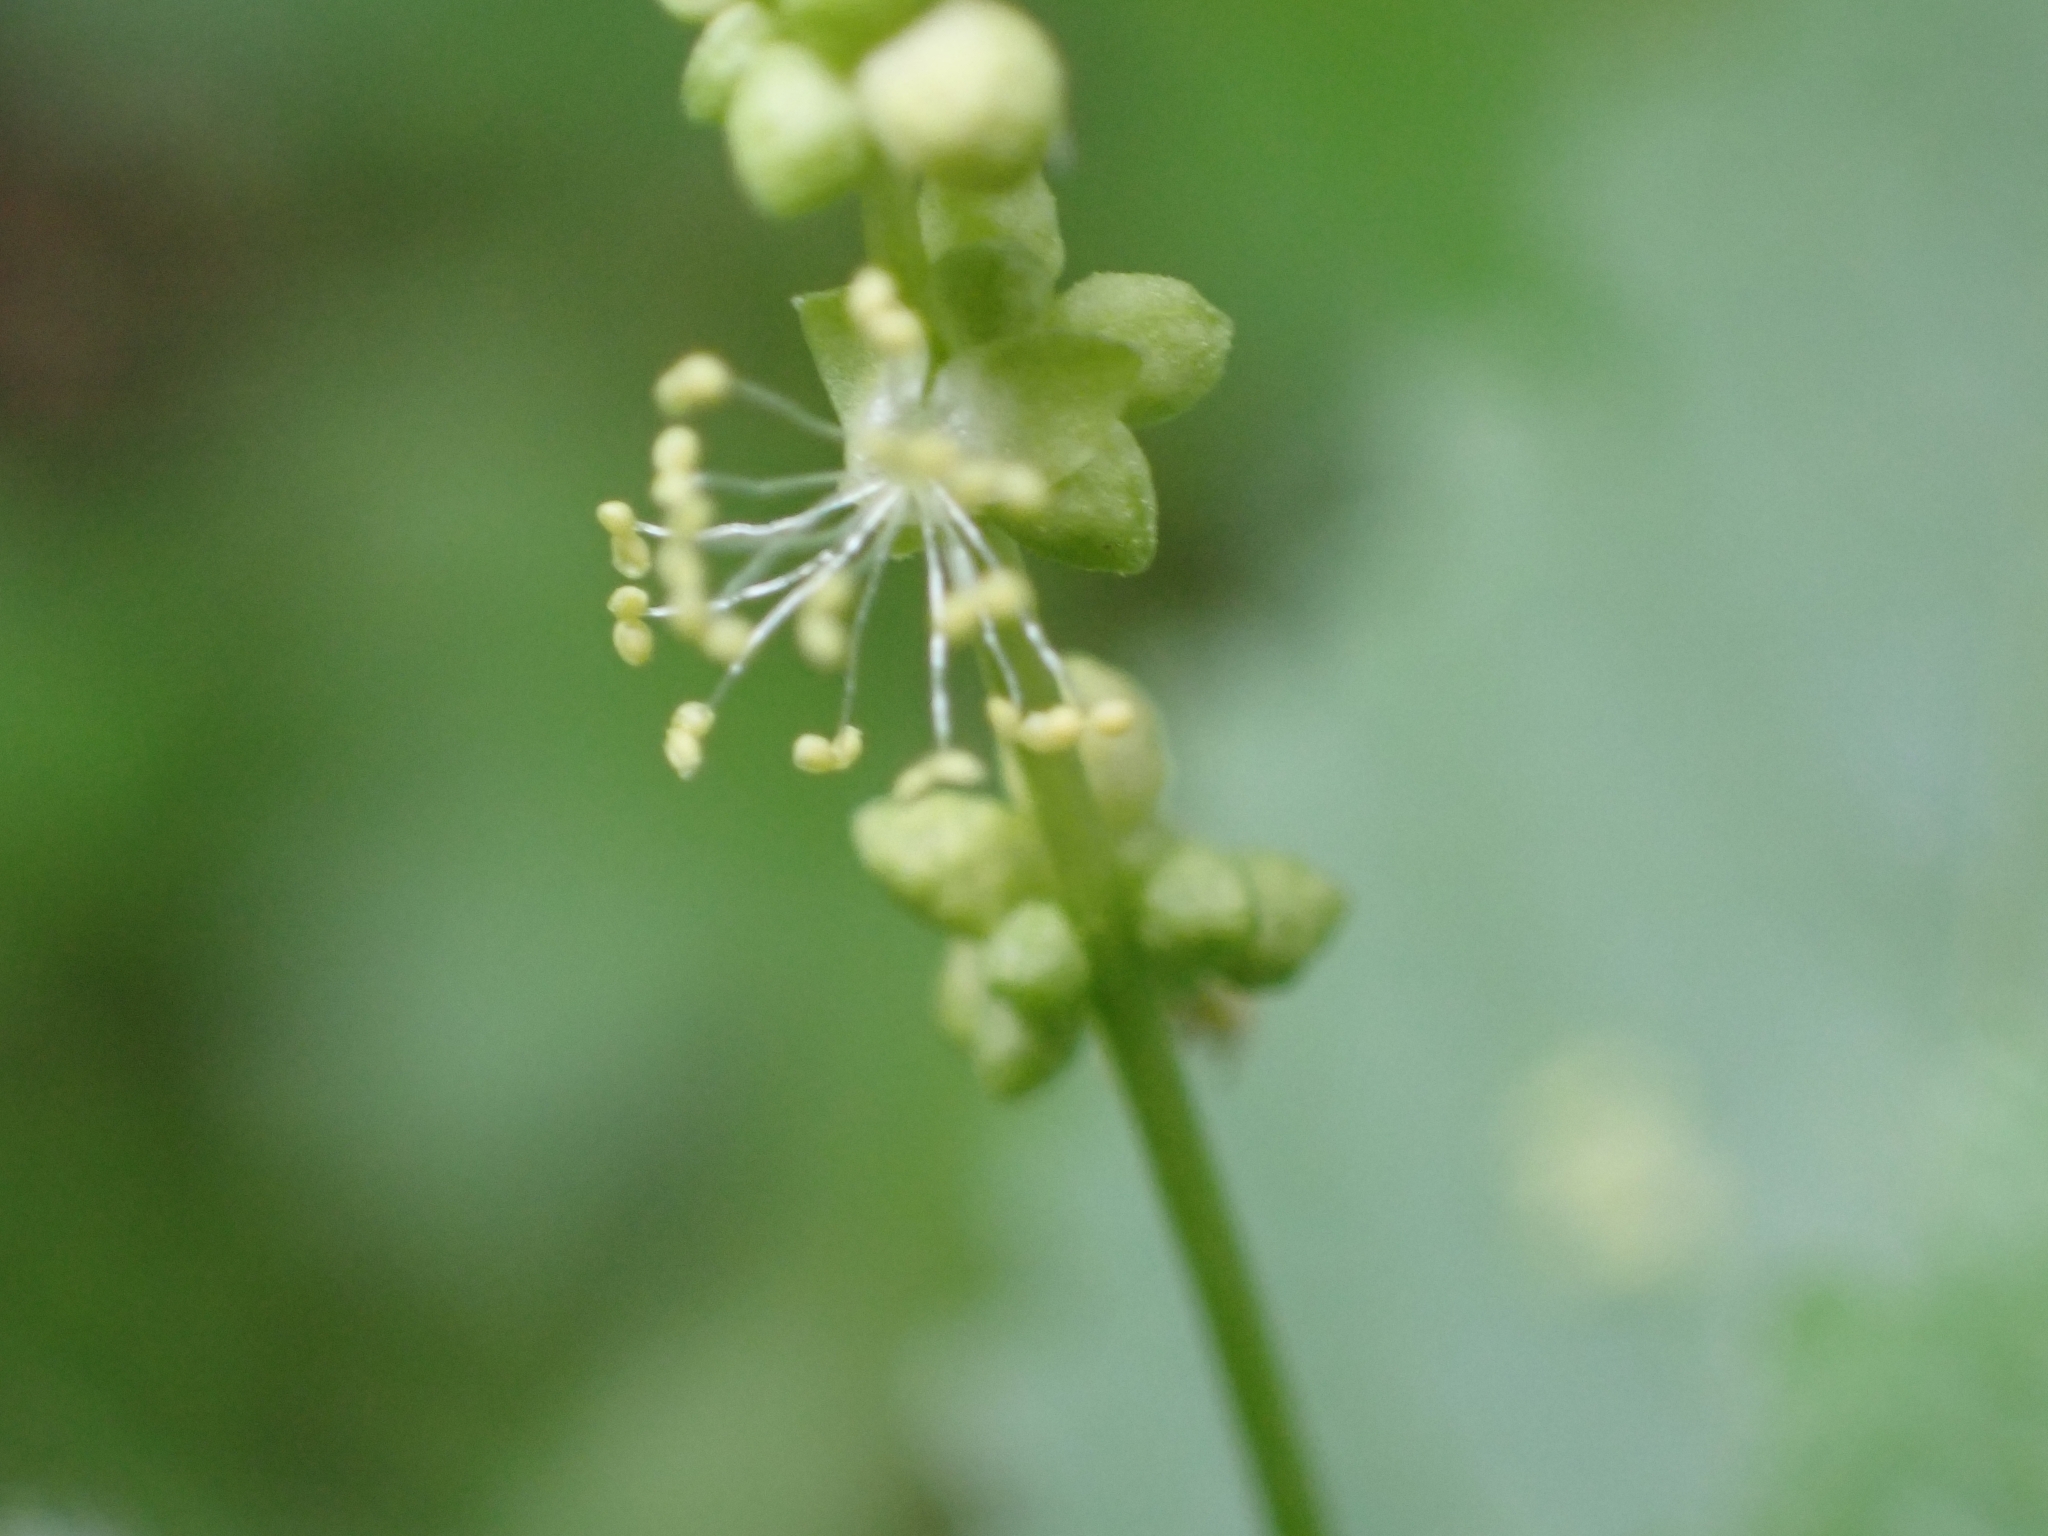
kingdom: Plantae
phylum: Tracheophyta
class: Magnoliopsida
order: Malpighiales
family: Euphorbiaceae
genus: Mercurialis
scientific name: Mercurialis annua
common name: Annual mercury
